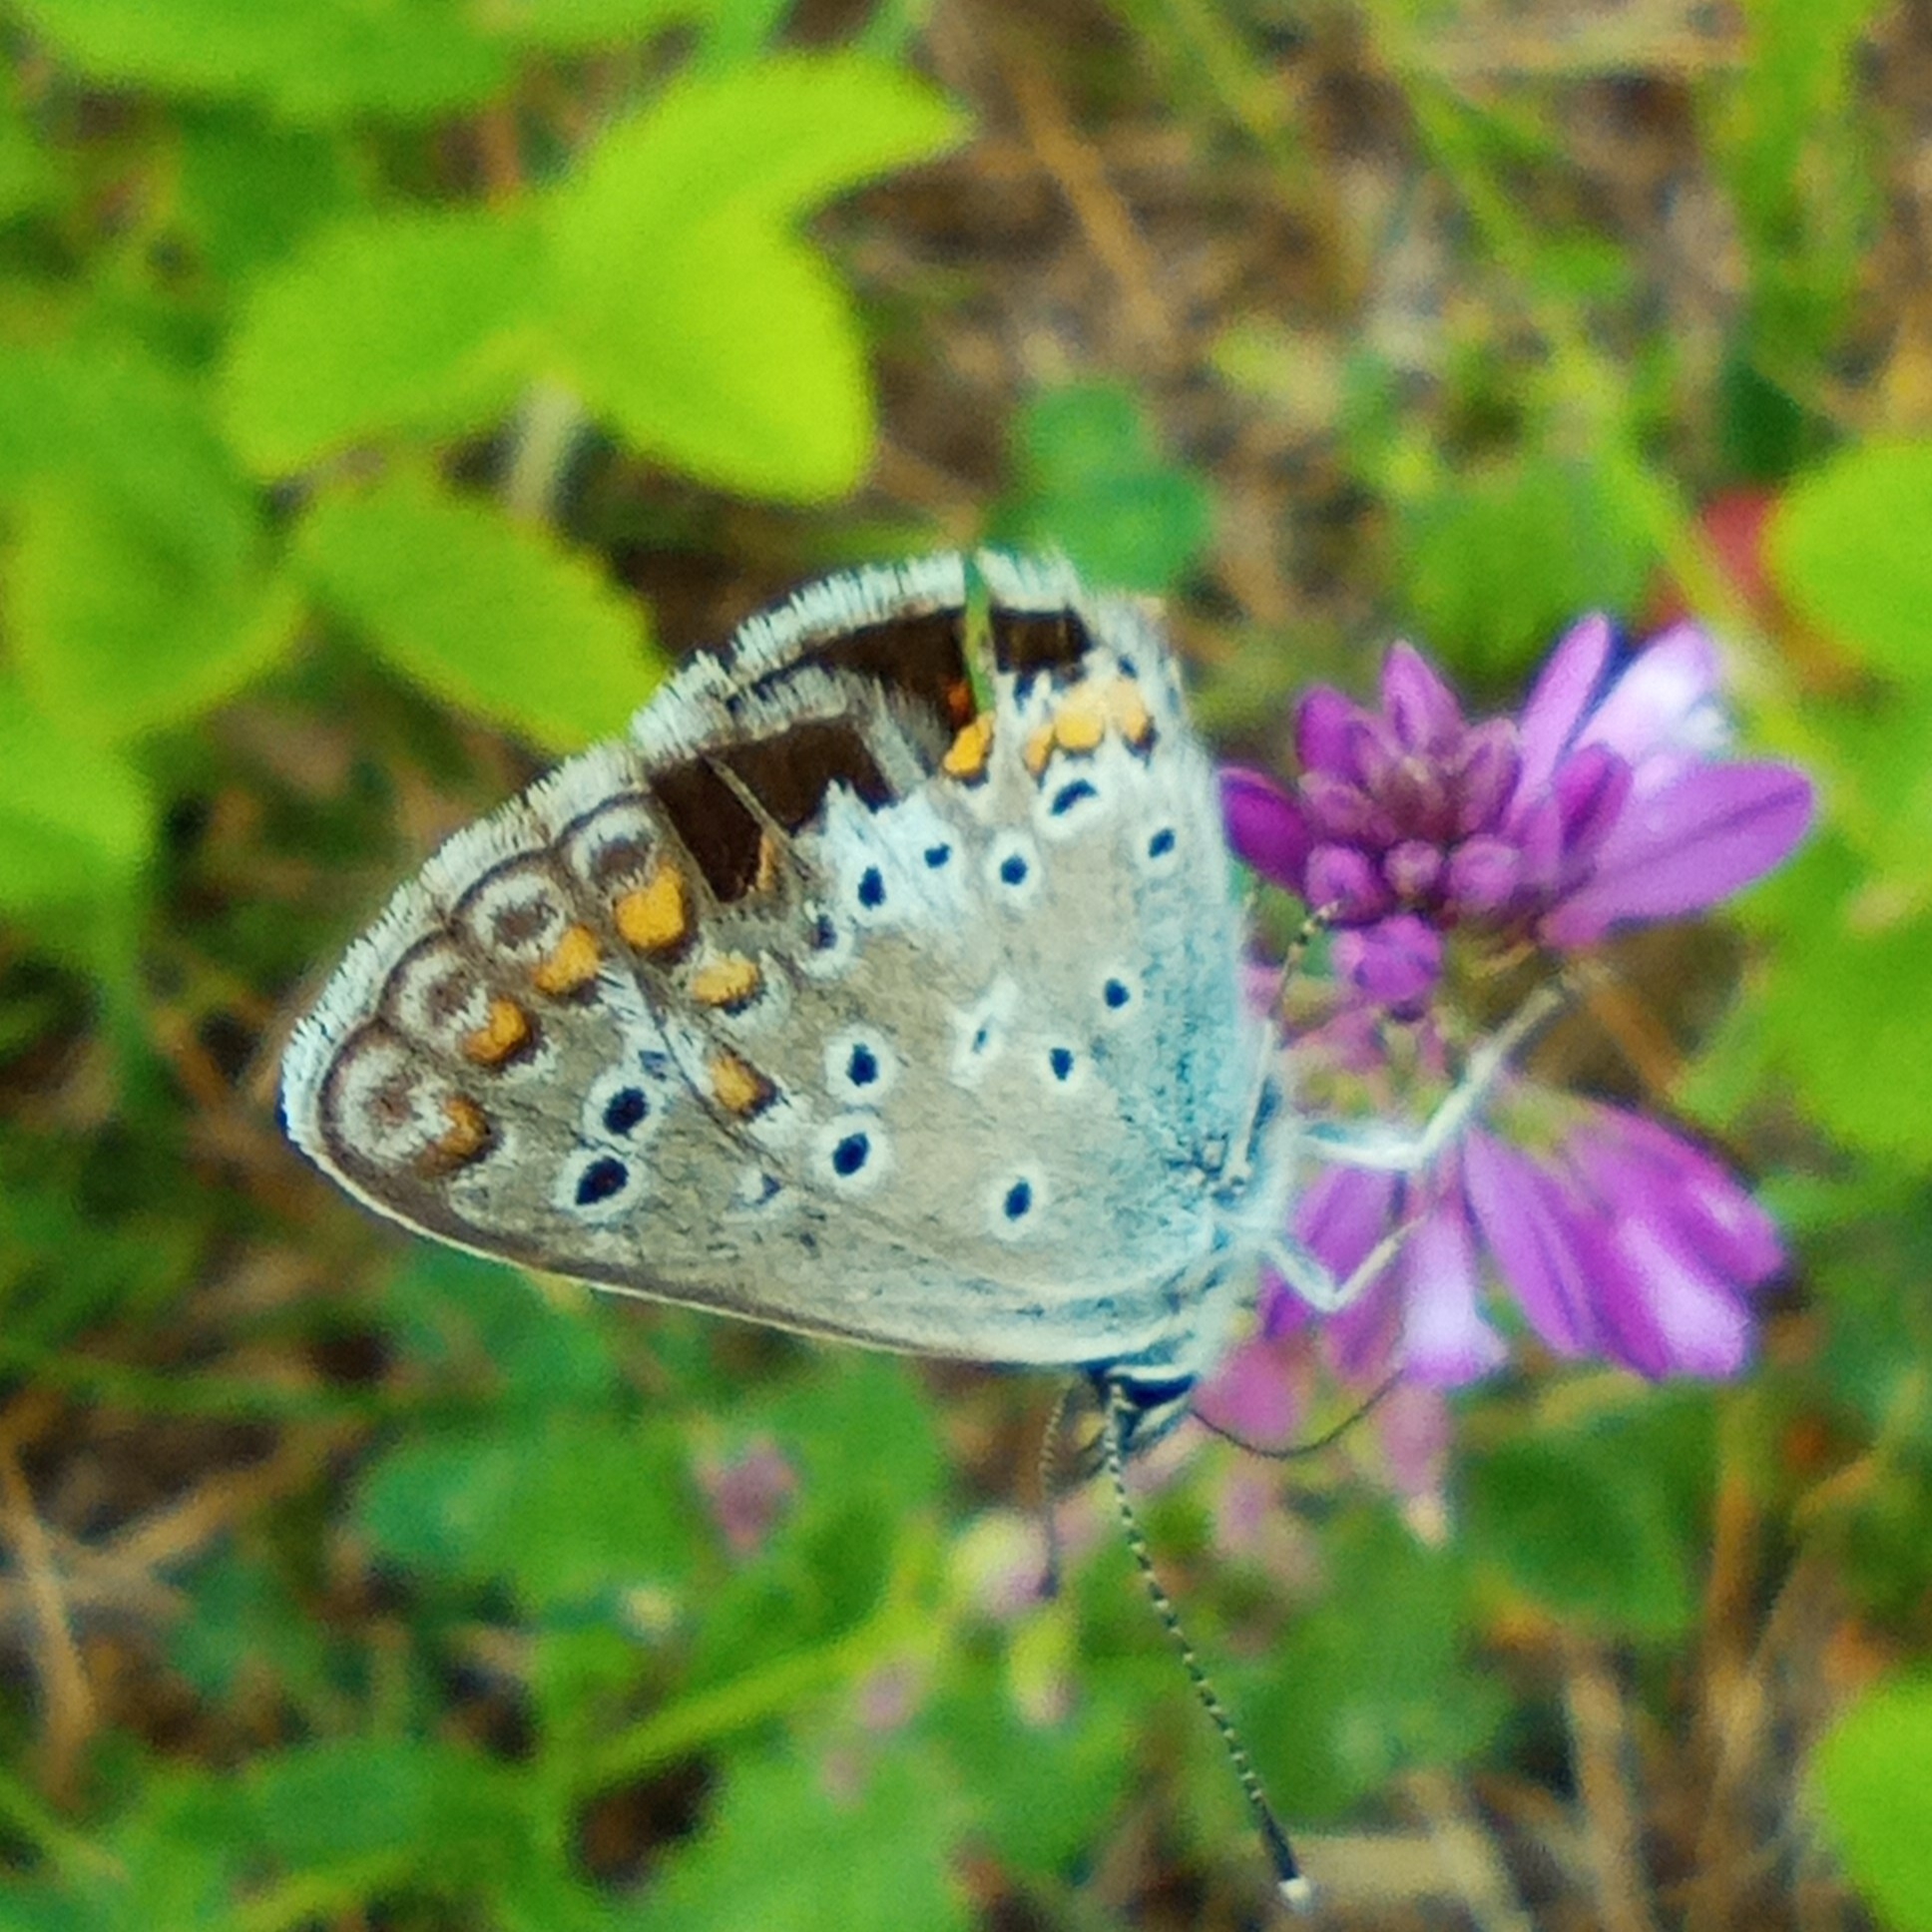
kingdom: Animalia
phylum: Arthropoda
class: Insecta
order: Lepidoptera
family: Lycaenidae
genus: Aricia
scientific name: Aricia artaxerxes
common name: Northern brown argus
